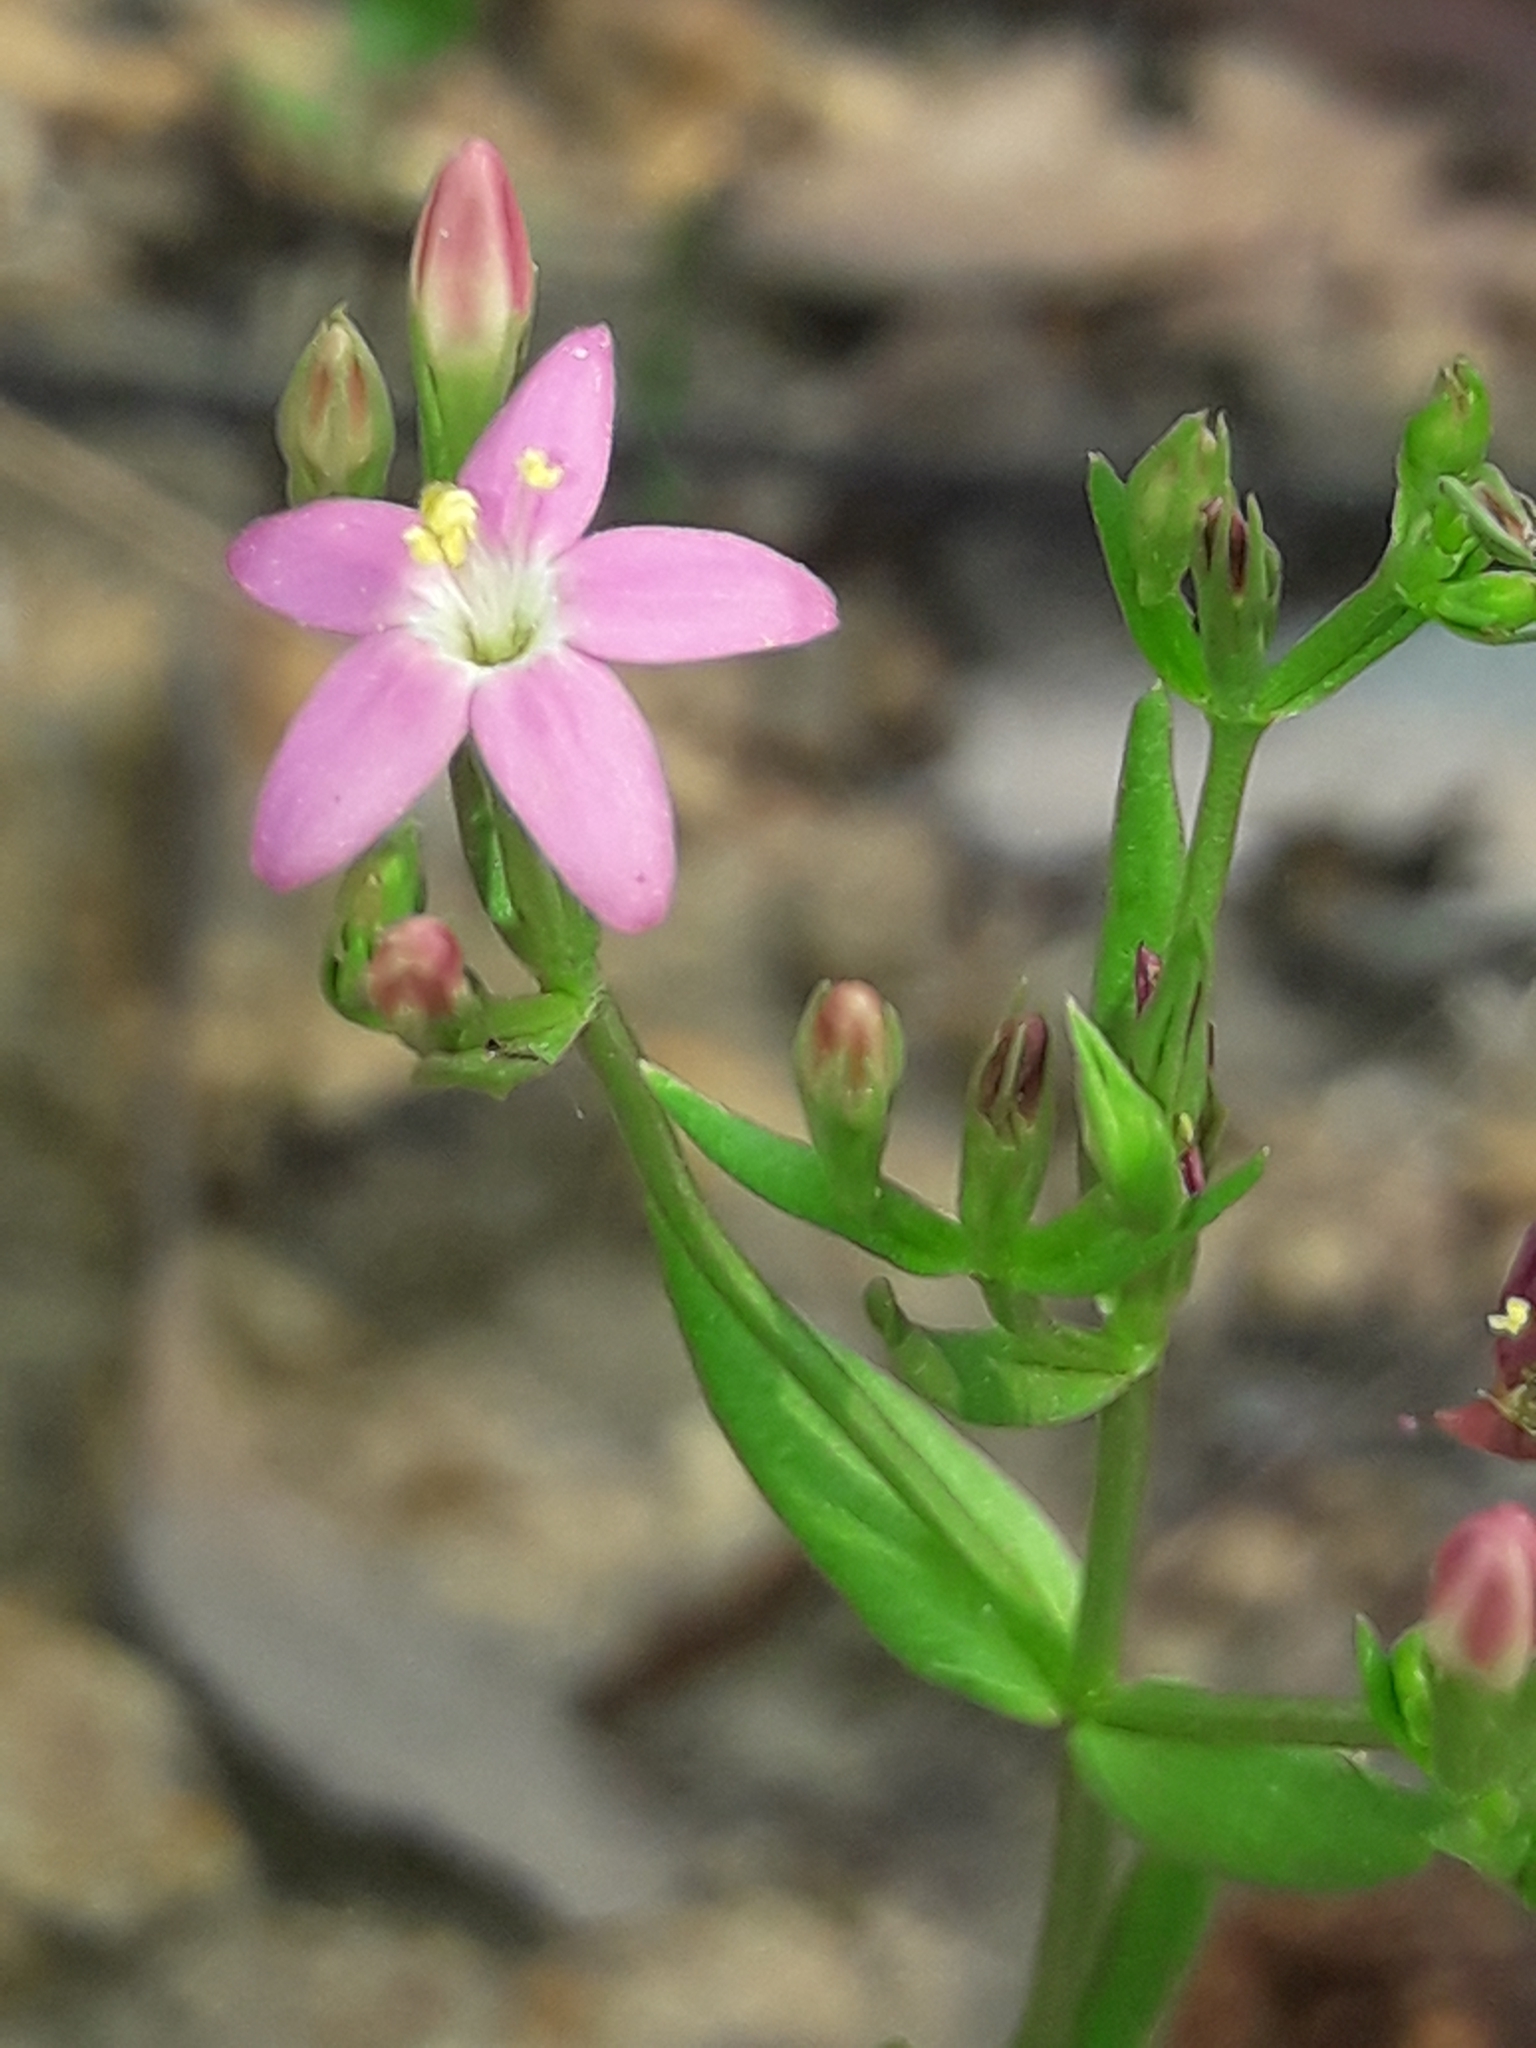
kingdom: Plantae
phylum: Tracheophyta
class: Magnoliopsida
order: Gentianales
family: Gentianaceae
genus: Centaurium
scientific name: Centaurium erythraea
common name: Common centaury
